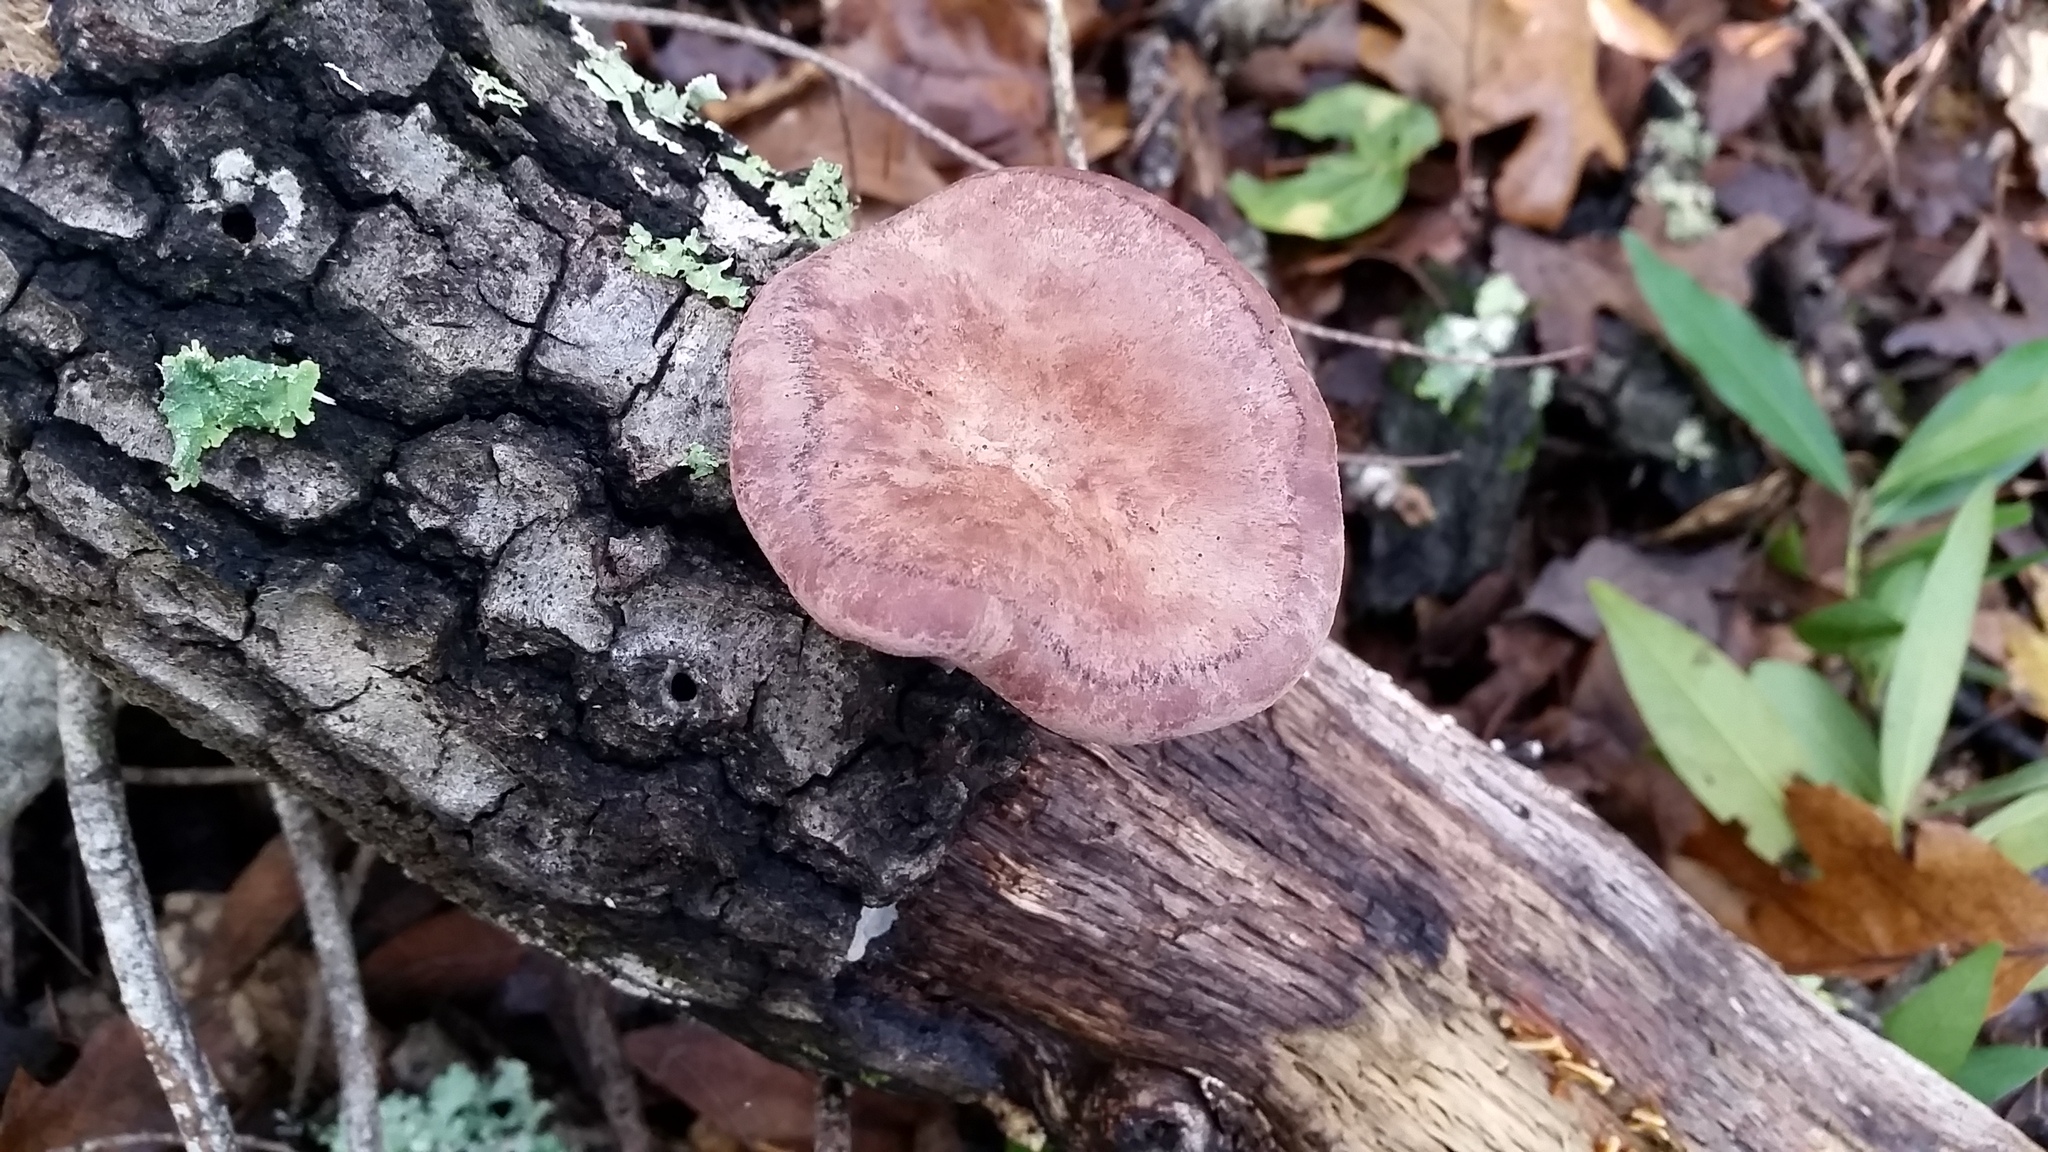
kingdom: Fungi
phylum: Basidiomycota
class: Agaricomycetes
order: Polyporales
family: Panaceae
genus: Panus
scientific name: Panus conchatus
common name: Lilac oysterling
